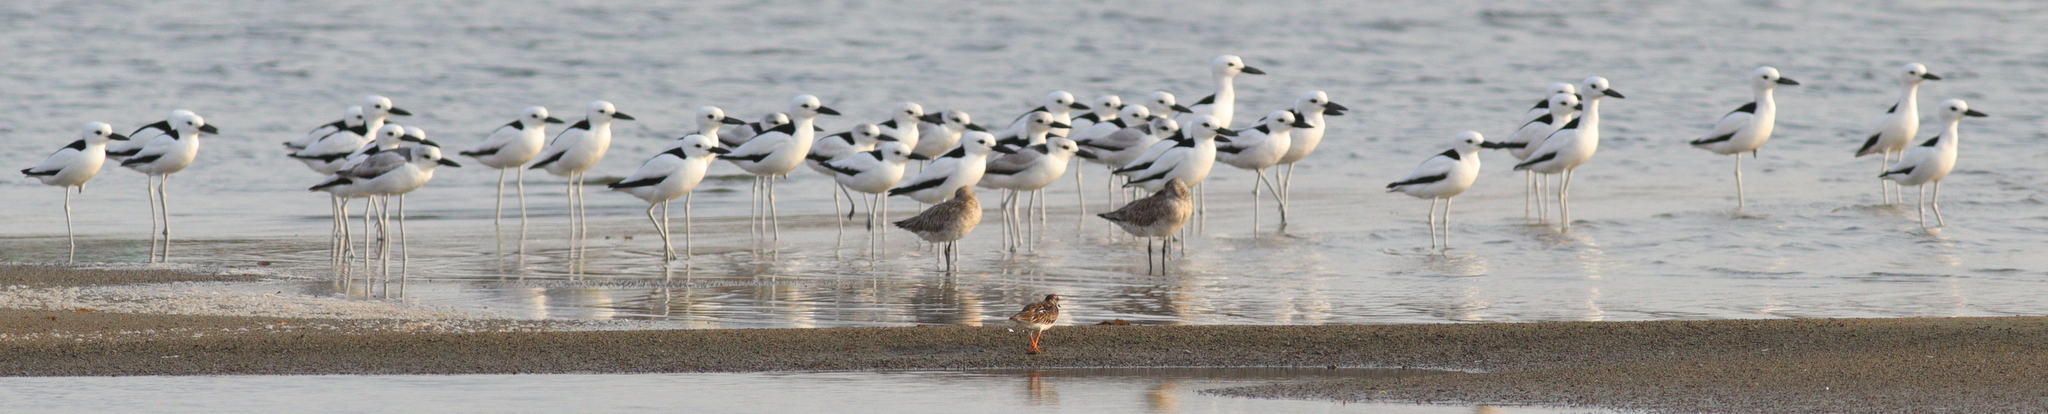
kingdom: Animalia
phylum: Chordata
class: Aves
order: Charadriiformes
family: Dromadidae
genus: Dromas
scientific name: Dromas ardeola
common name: Crab-plover
